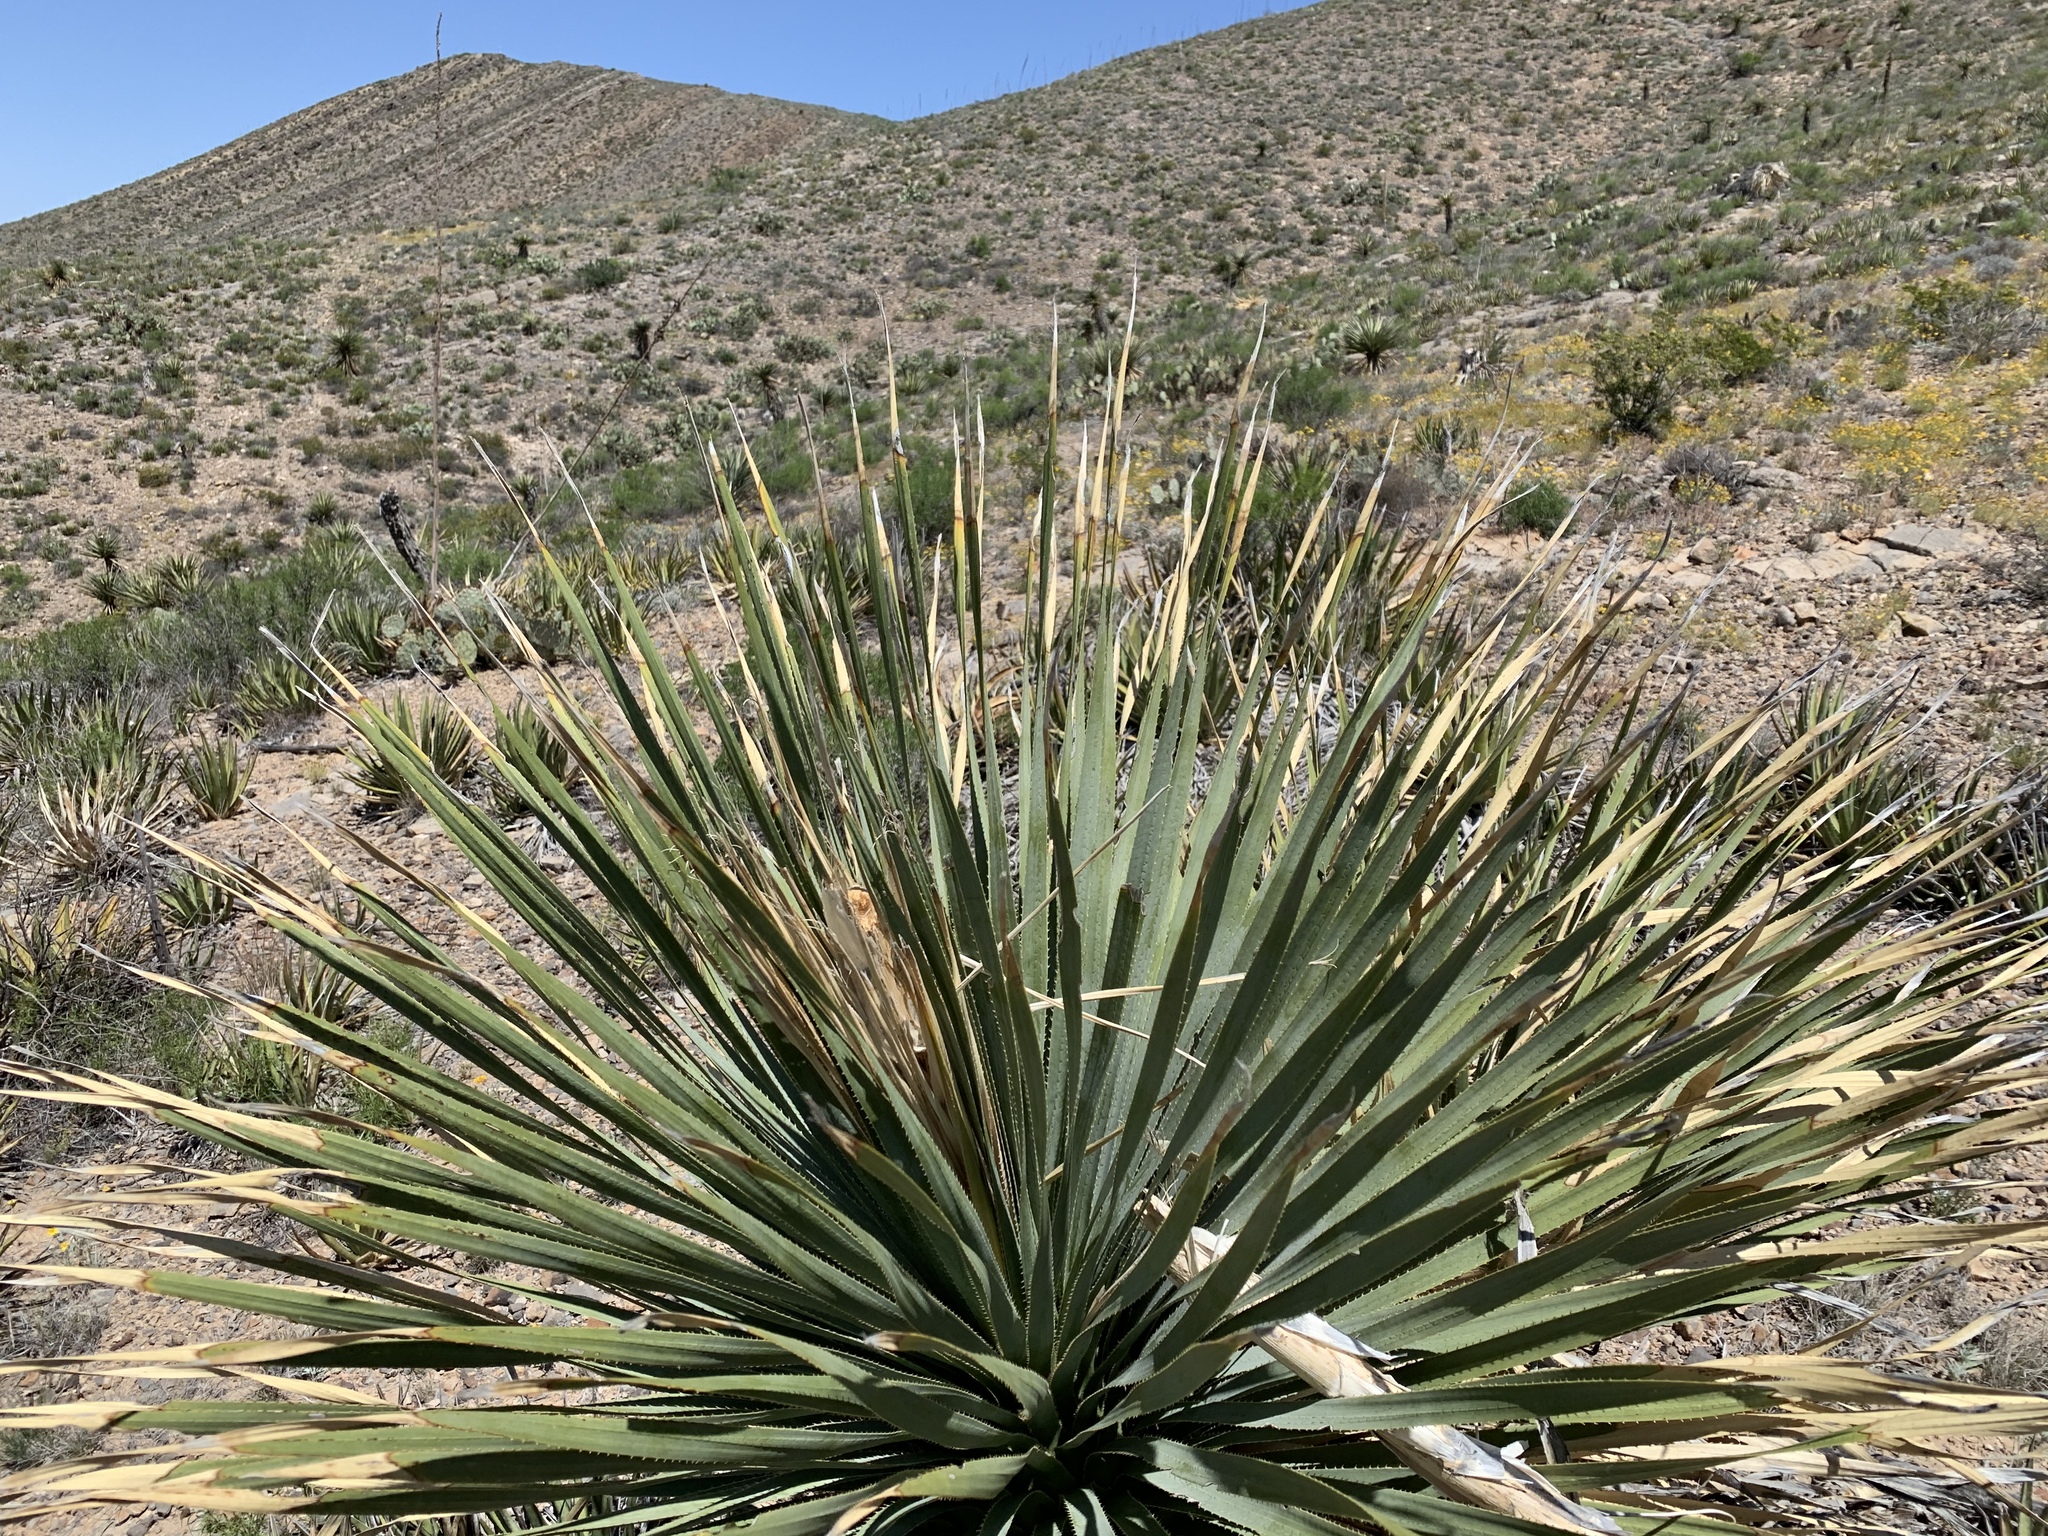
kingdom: Plantae
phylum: Tracheophyta
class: Liliopsida
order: Asparagales
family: Asparagaceae
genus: Dasylirion
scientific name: Dasylirion wheeleri
